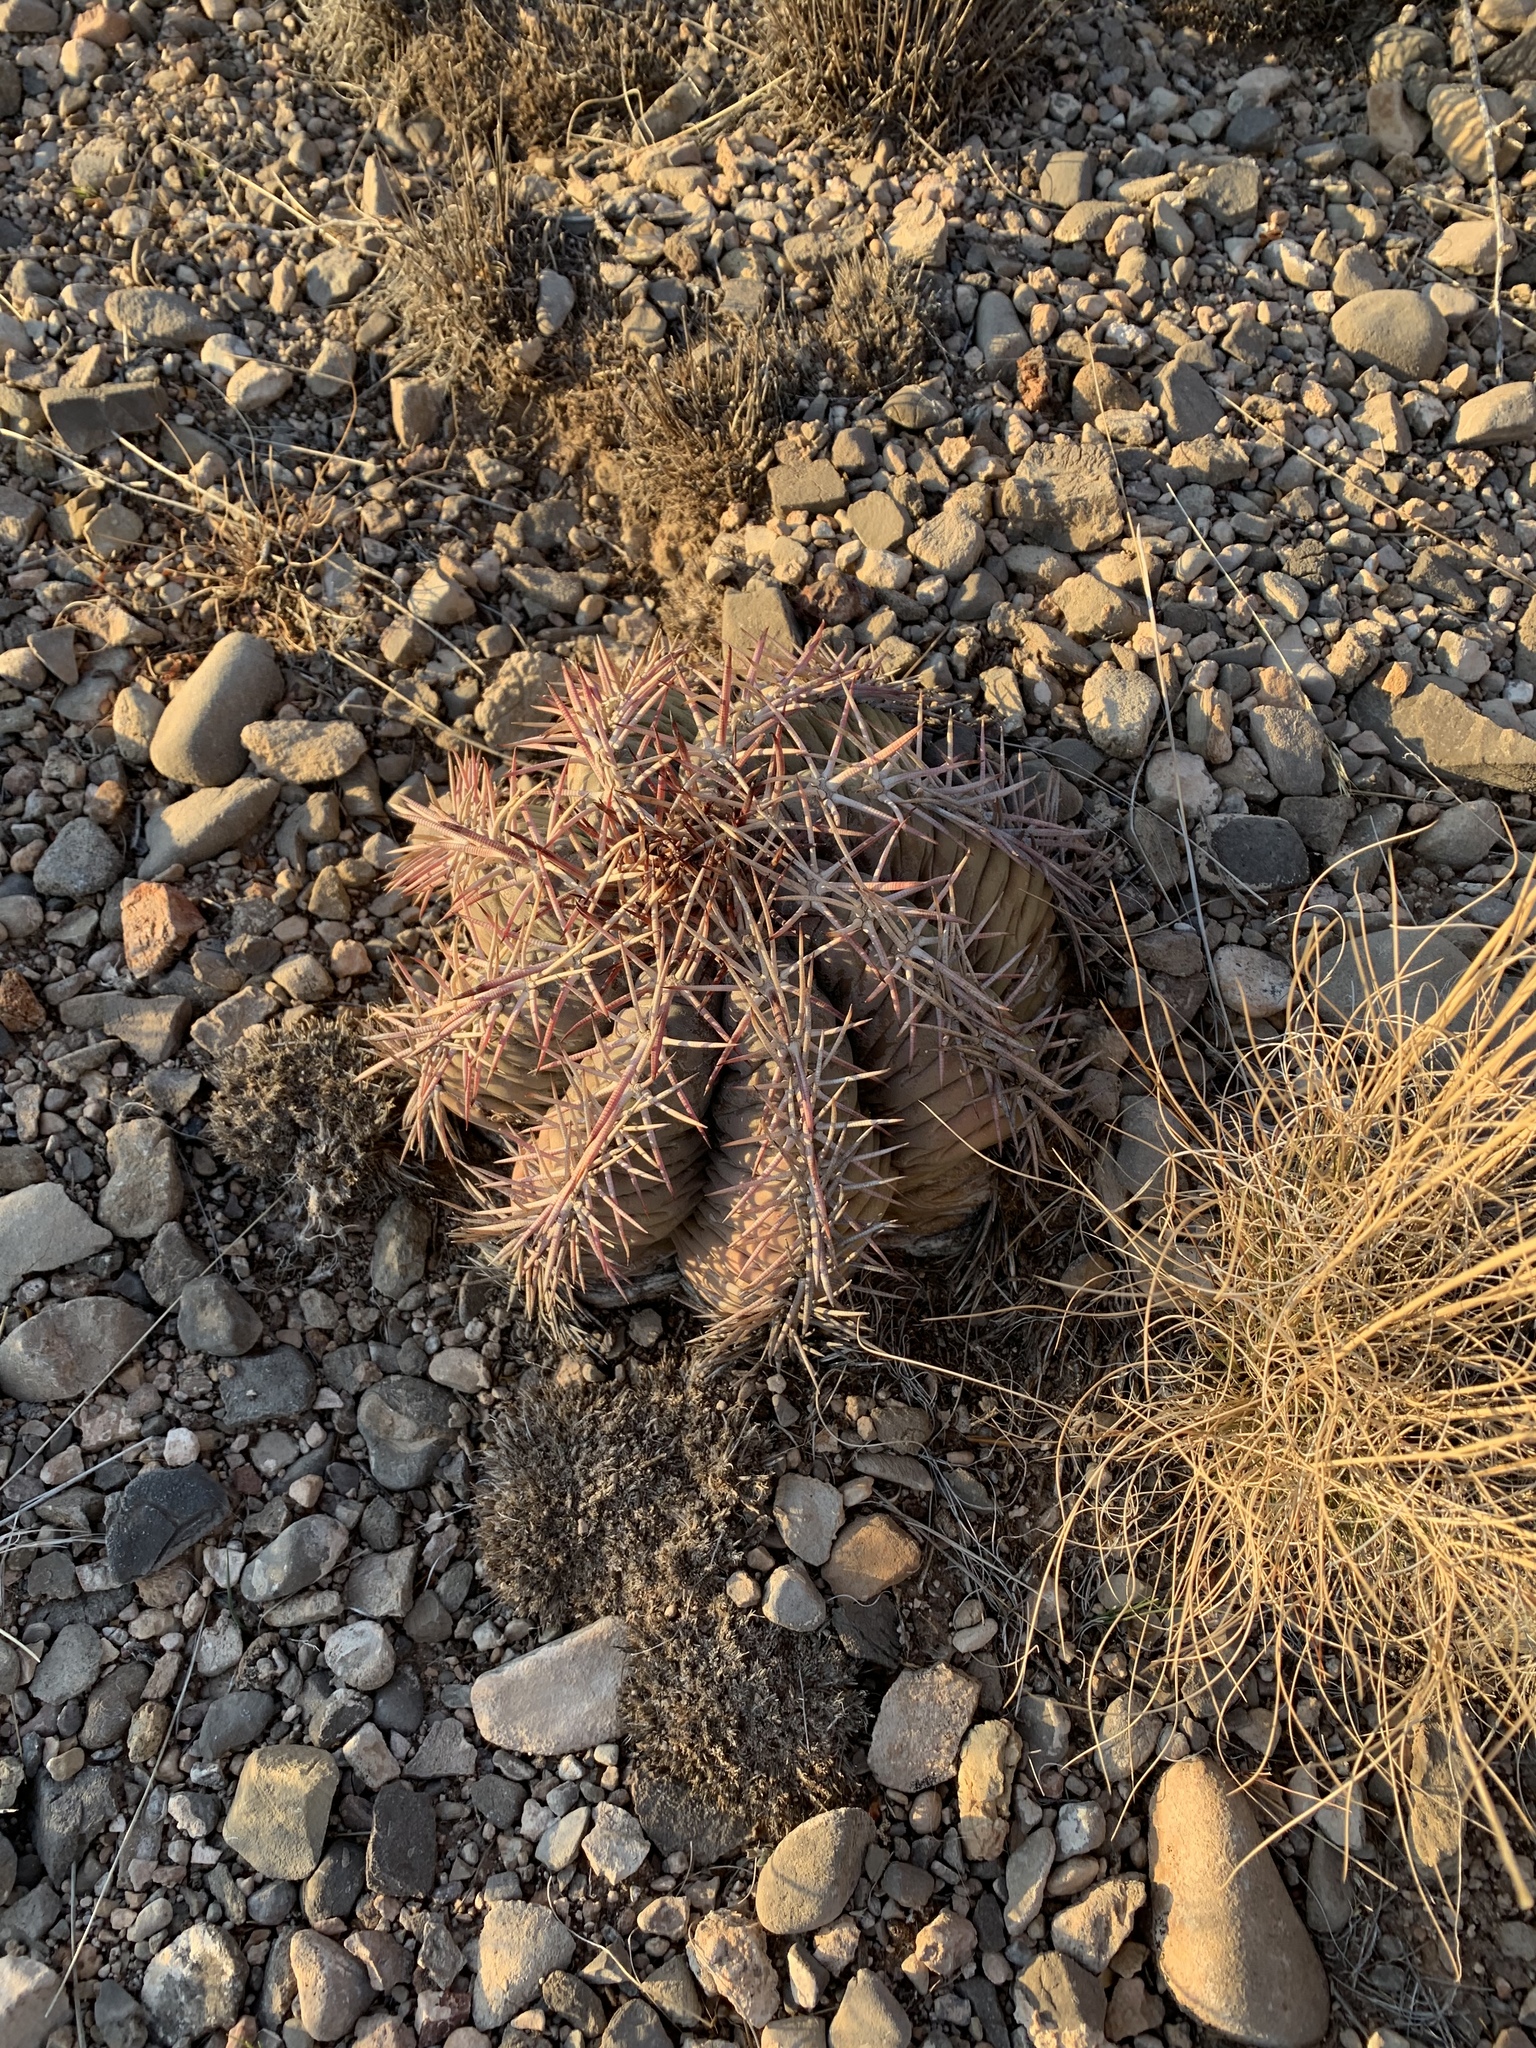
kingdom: Plantae
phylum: Tracheophyta
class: Magnoliopsida
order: Caryophyllales
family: Cactaceae
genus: Echinocactus
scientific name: Echinocactus horizonthalonius
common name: Devilshead
